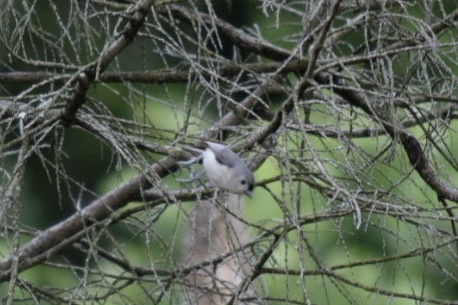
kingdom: Animalia
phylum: Chordata
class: Aves
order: Passeriformes
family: Paridae
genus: Baeolophus
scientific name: Baeolophus bicolor
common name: Tufted titmouse
